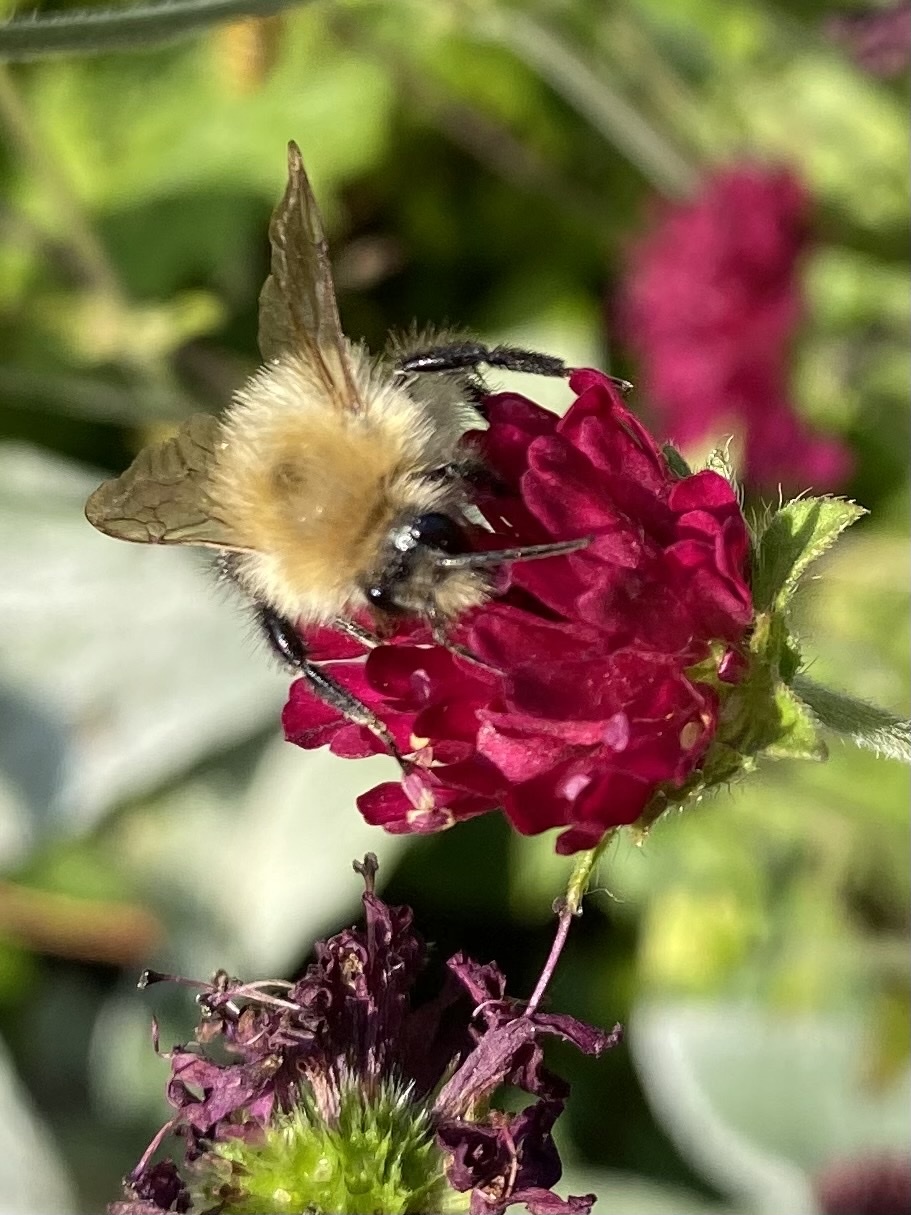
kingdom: Animalia
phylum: Arthropoda
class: Insecta
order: Hymenoptera
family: Apidae
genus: Bombus
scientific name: Bombus pascuorum
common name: Common carder bee
